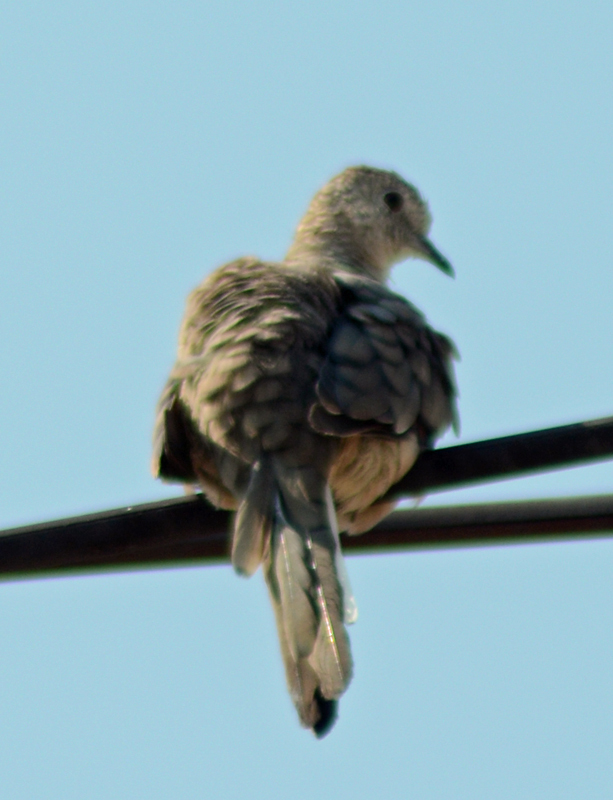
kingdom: Animalia
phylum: Chordata
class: Aves
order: Columbiformes
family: Columbidae
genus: Columbina
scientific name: Columbina inca
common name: Inca dove
